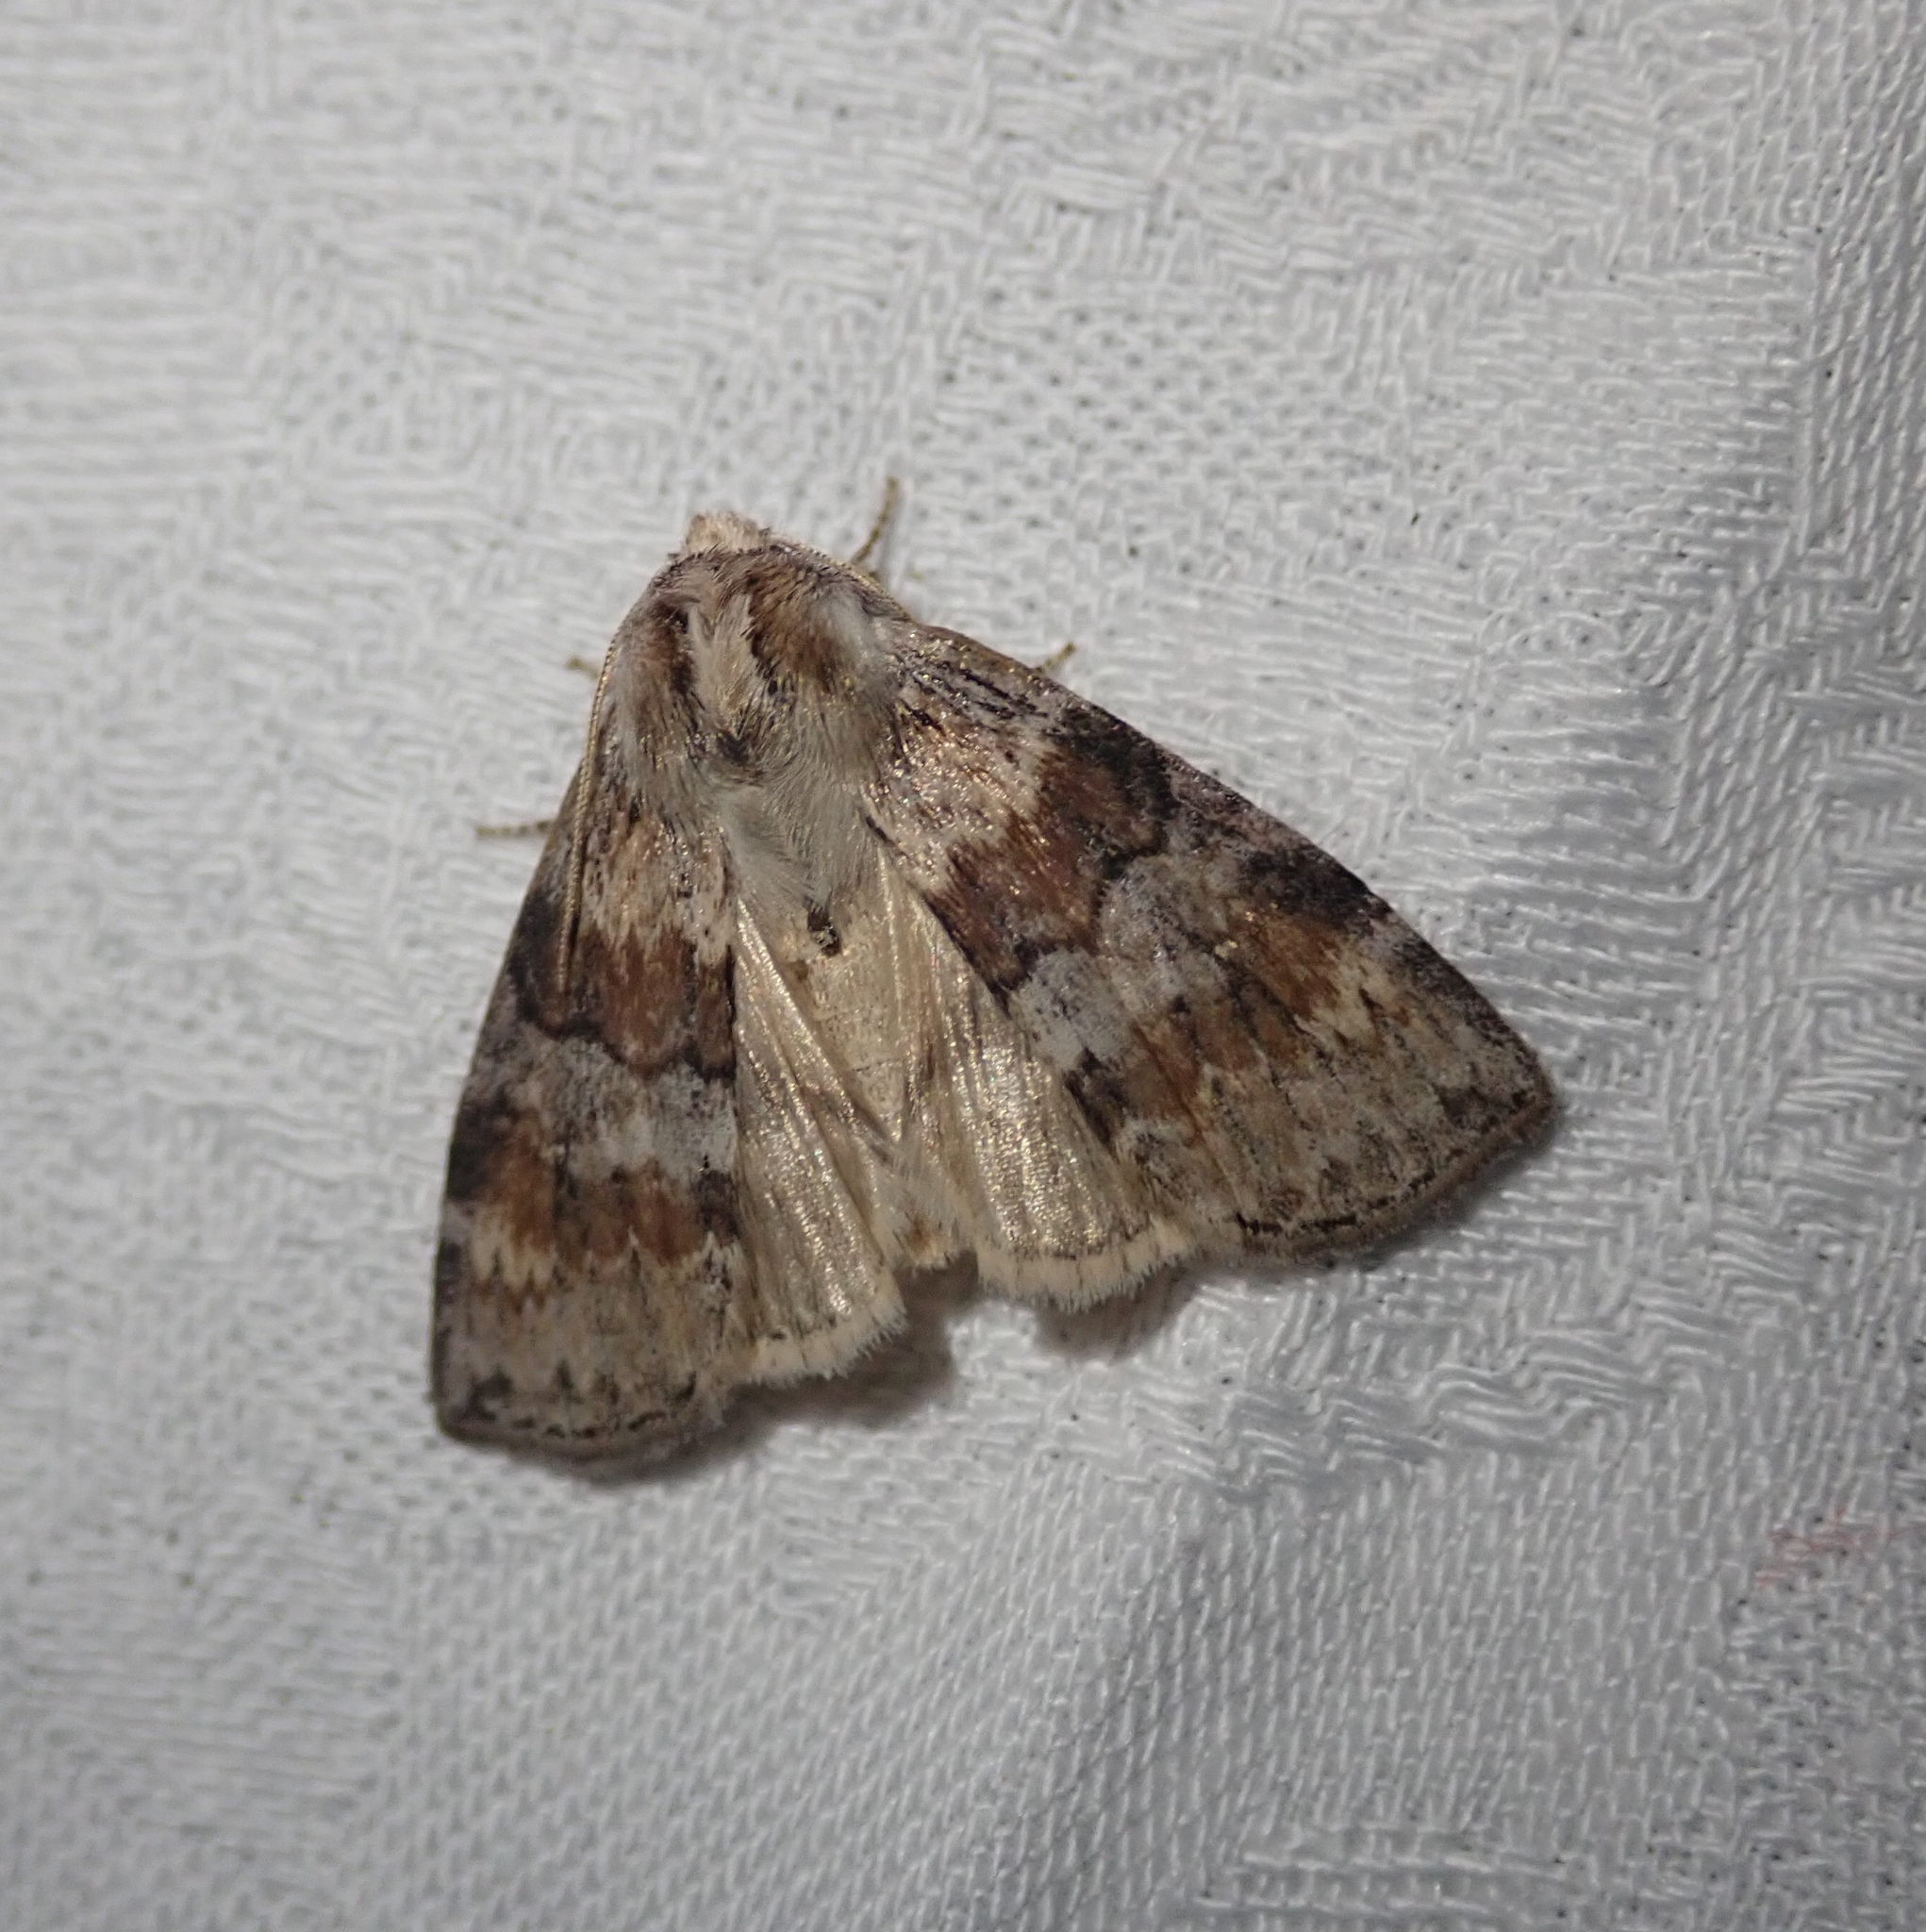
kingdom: Animalia
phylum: Arthropoda
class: Insecta
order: Lepidoptera
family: Drepanidae
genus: Cymatophorina
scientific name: Cymatophorina diluta
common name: Oak lutestring
